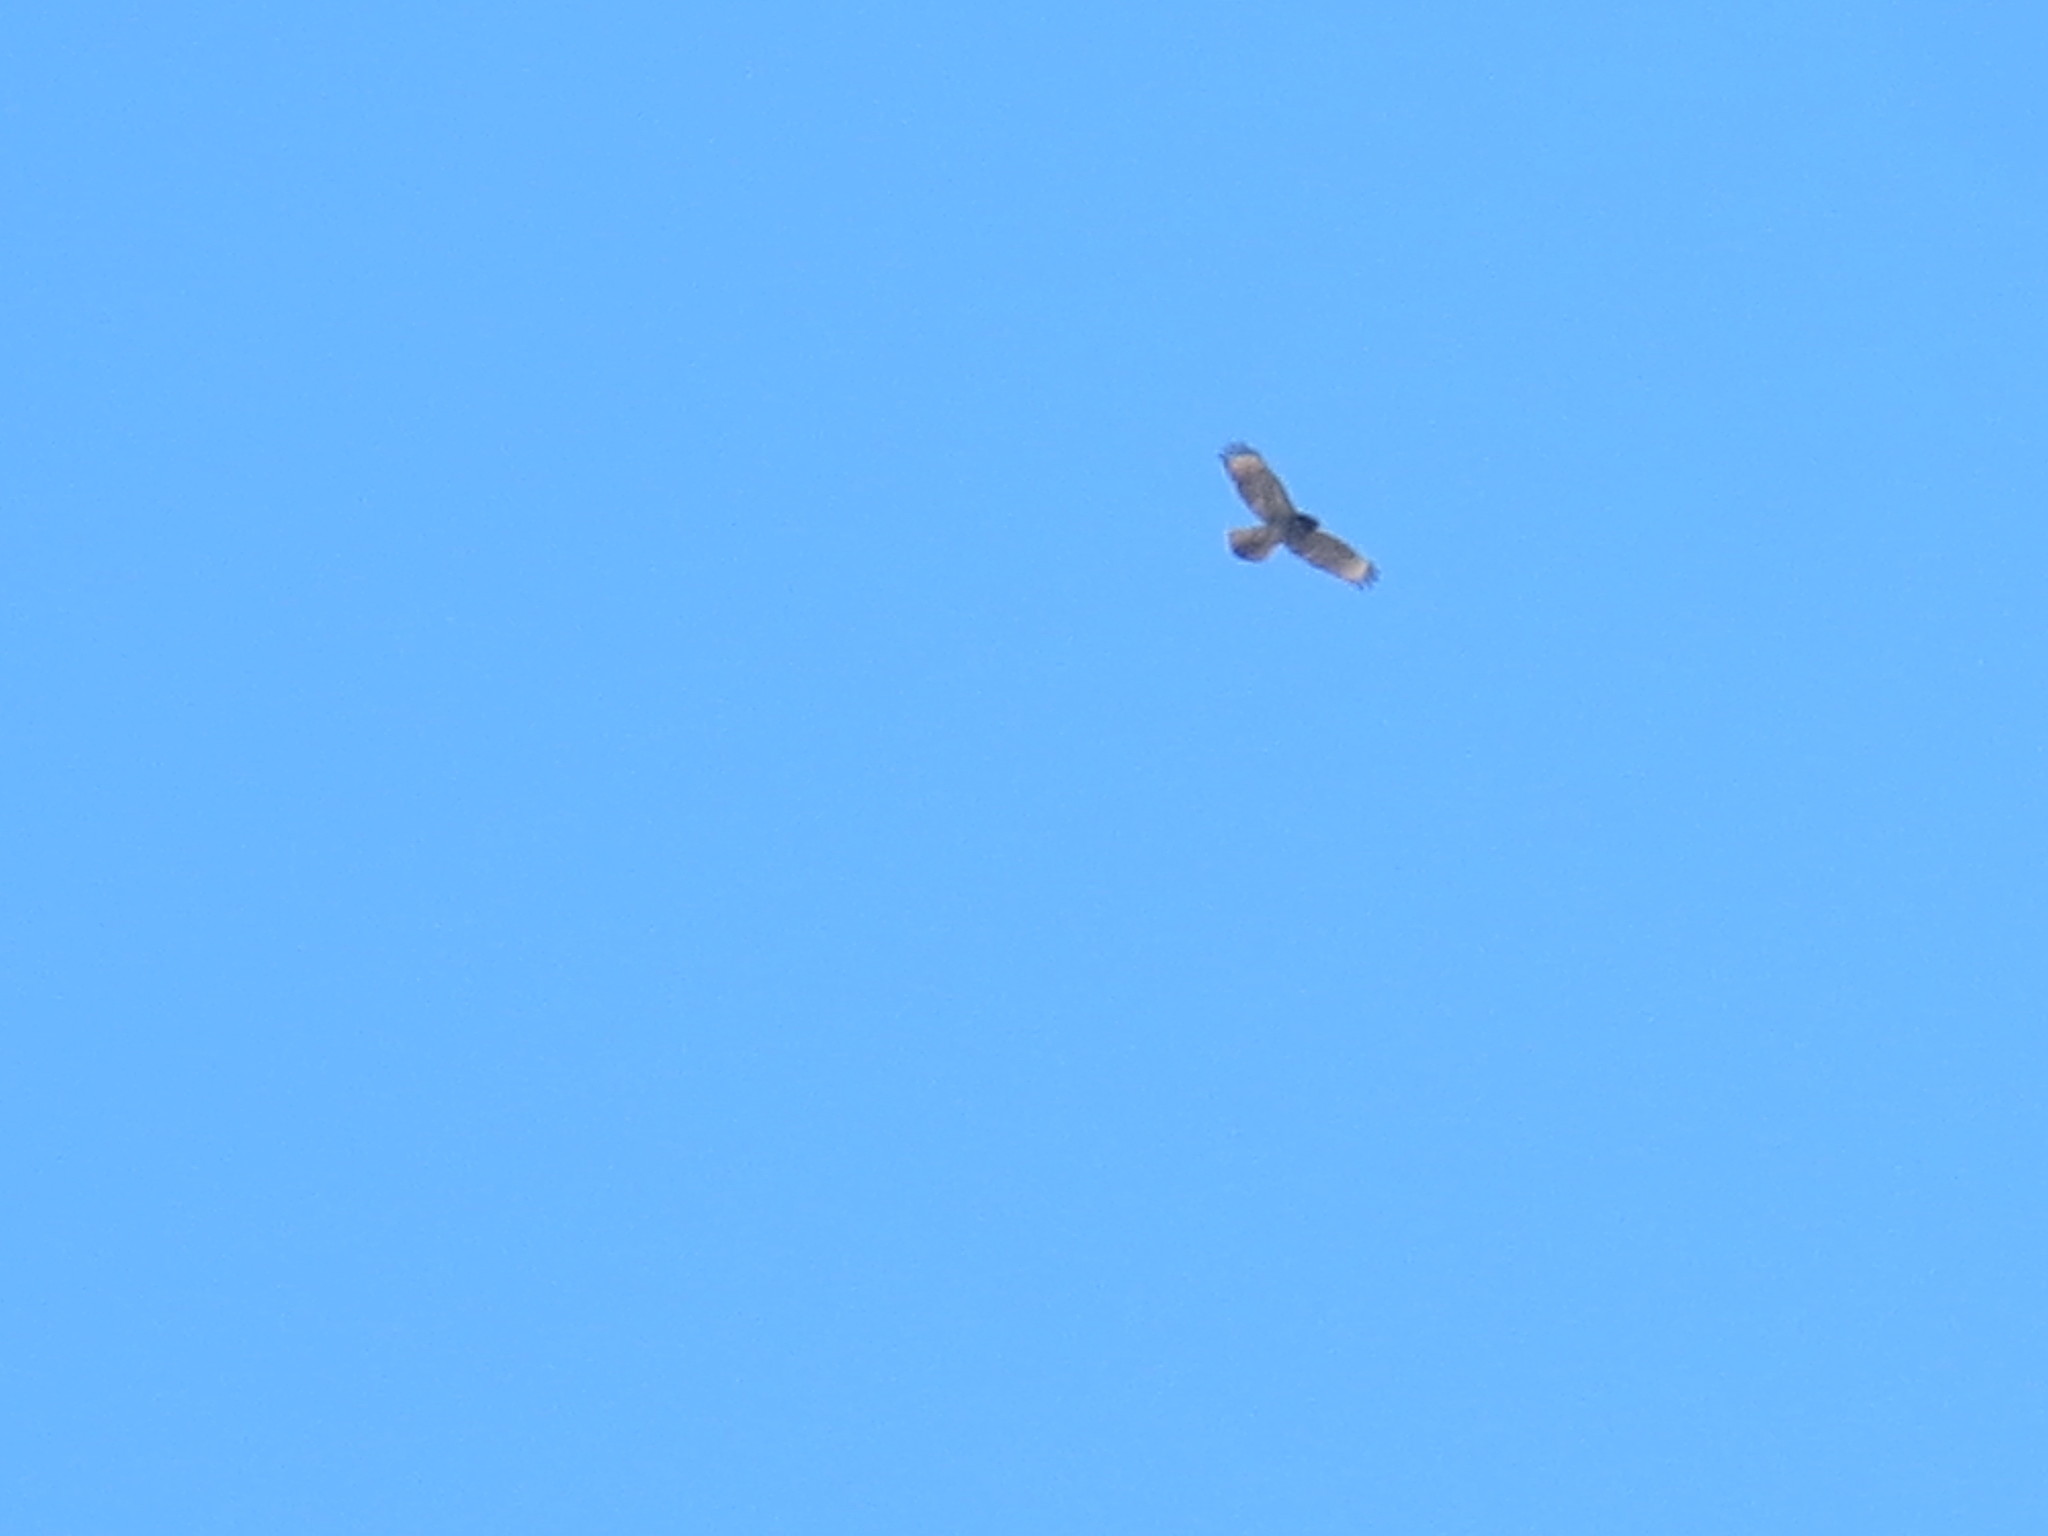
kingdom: Animalia
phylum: Chordata
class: Aves
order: Accipitriformes
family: Accipitridae
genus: Buteo
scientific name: Buteo lineatus
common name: Red-shouldered hawk
